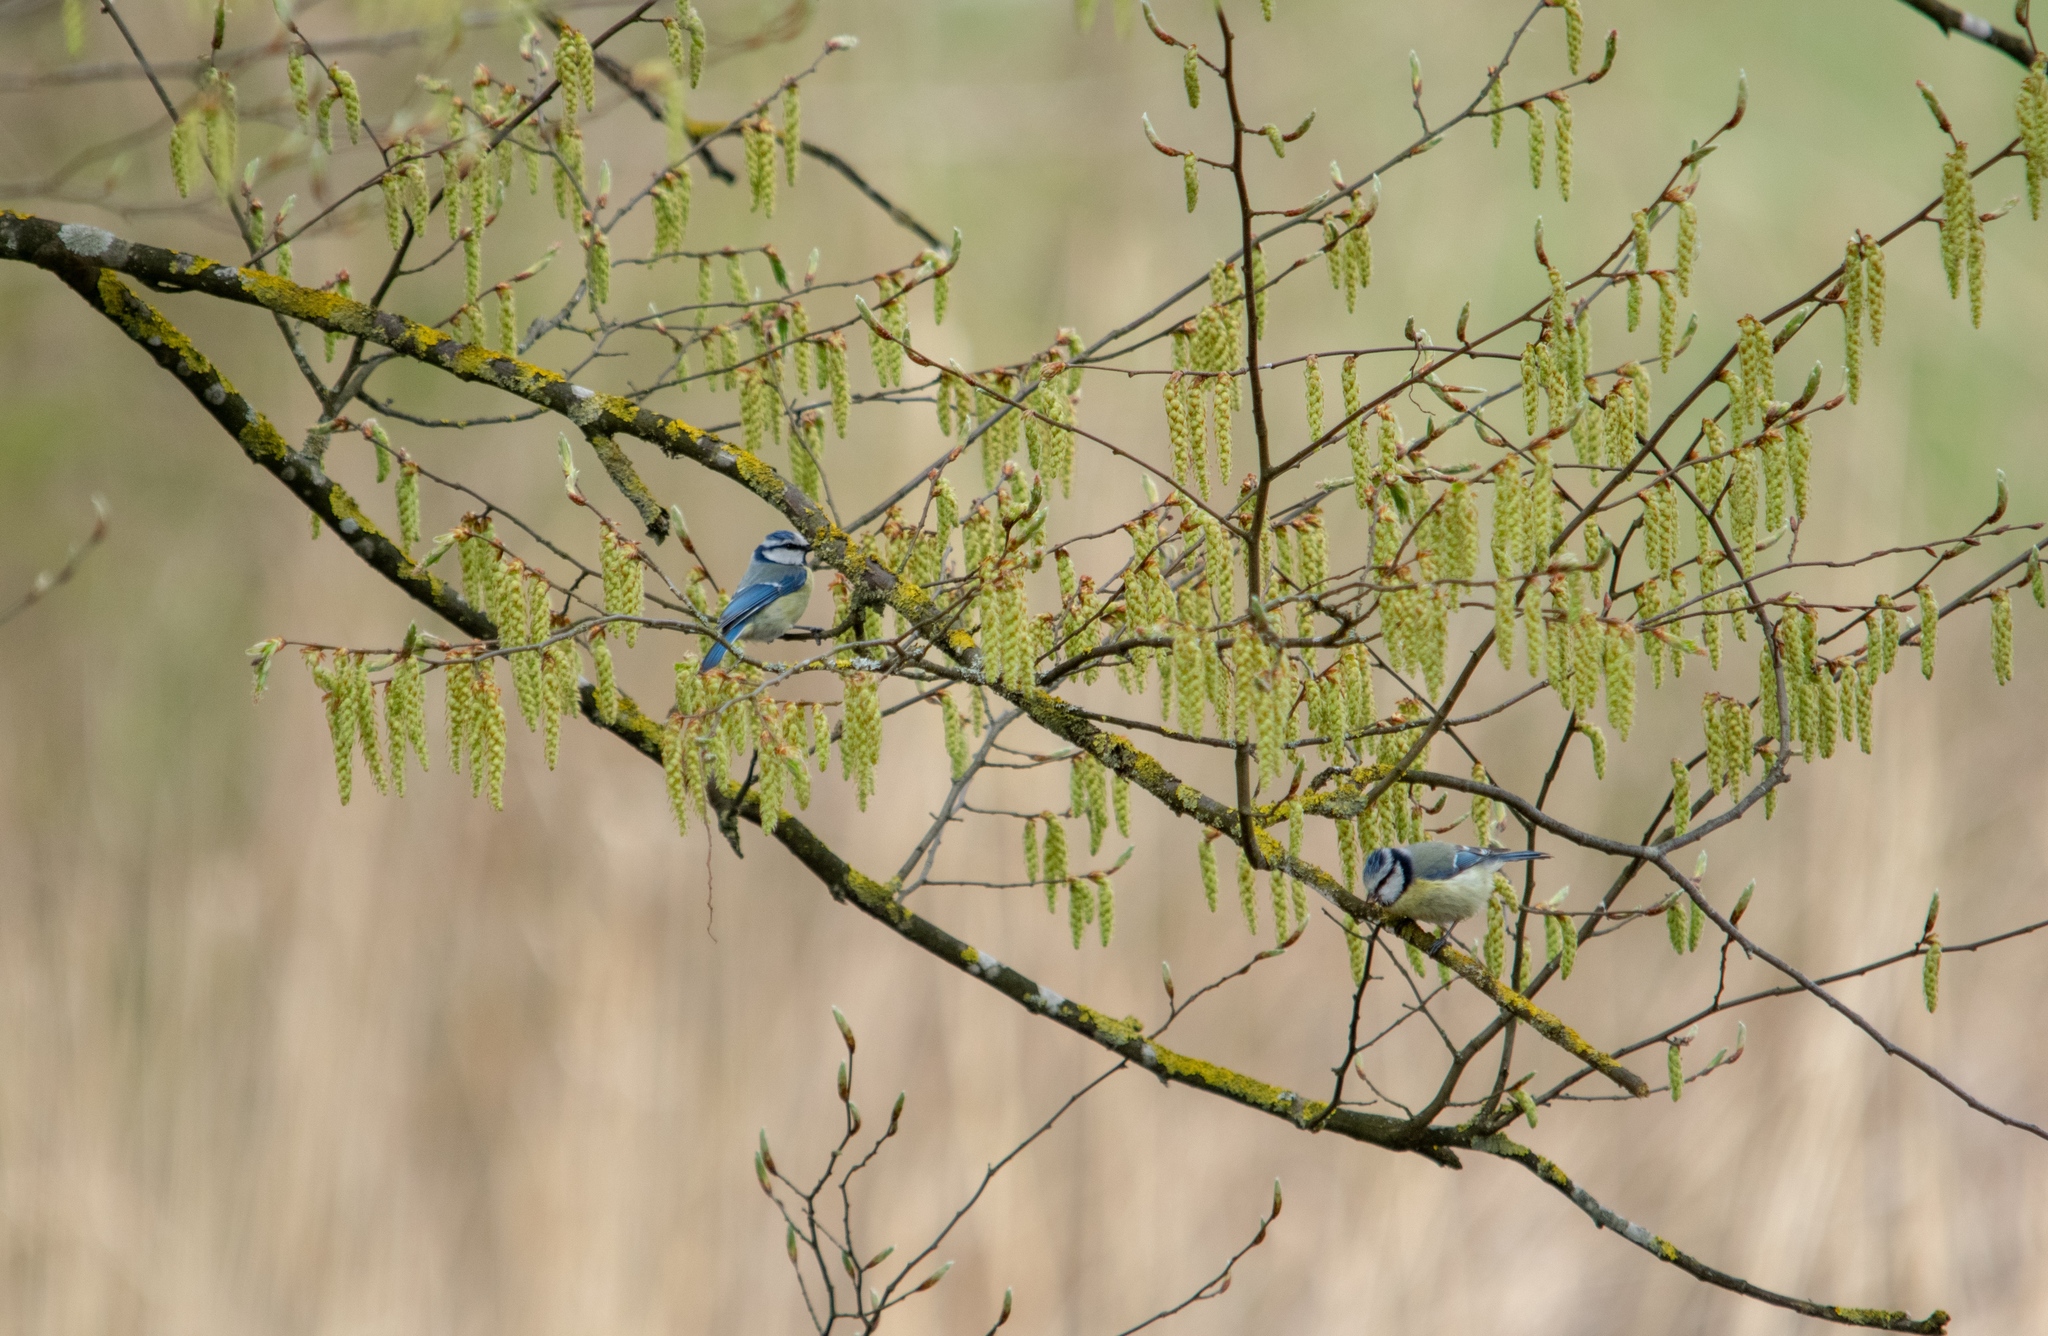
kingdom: Animalia
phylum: Chordata
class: Aves
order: Passeriformes
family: Paridae
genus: Cyanistes
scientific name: Cyanistes caeruleus
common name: Eurasian blue tit
